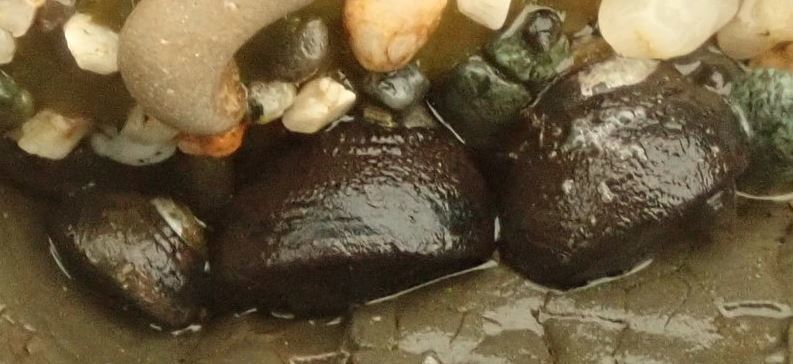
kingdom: Animalia
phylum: Mollusca
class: Gastropoda
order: Trochida
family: Tegulidae
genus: Tegula
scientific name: Tegula funebralis
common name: Black tegula
